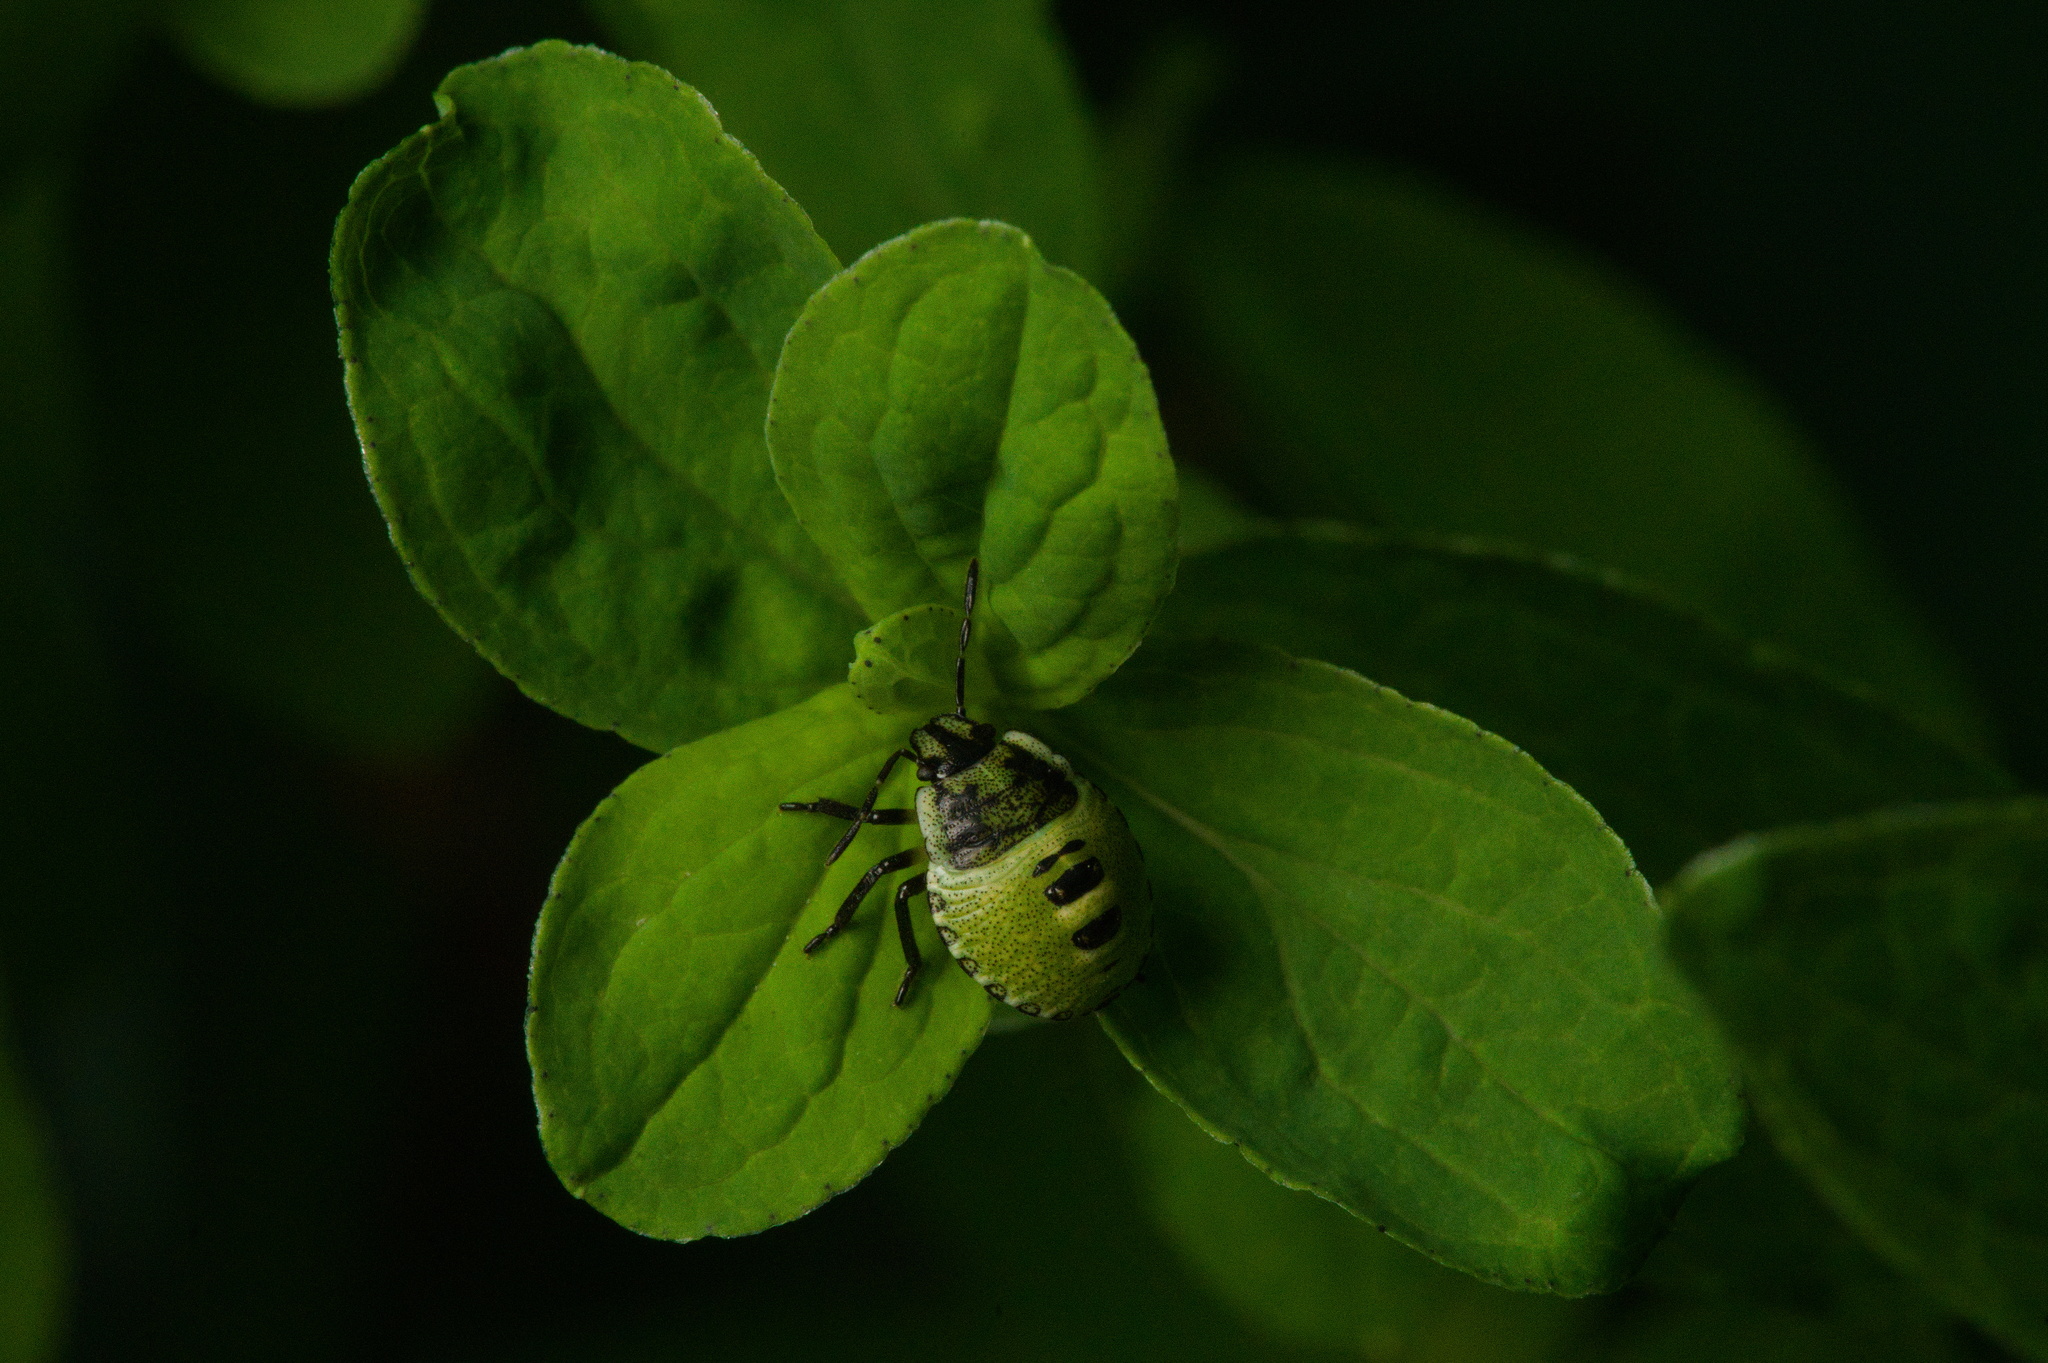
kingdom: Animalia
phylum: Arthropoda
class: Insecta
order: Hemiptera
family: Pentatomidae
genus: Palomena
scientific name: Palomena prasina
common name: Green shieldbug
